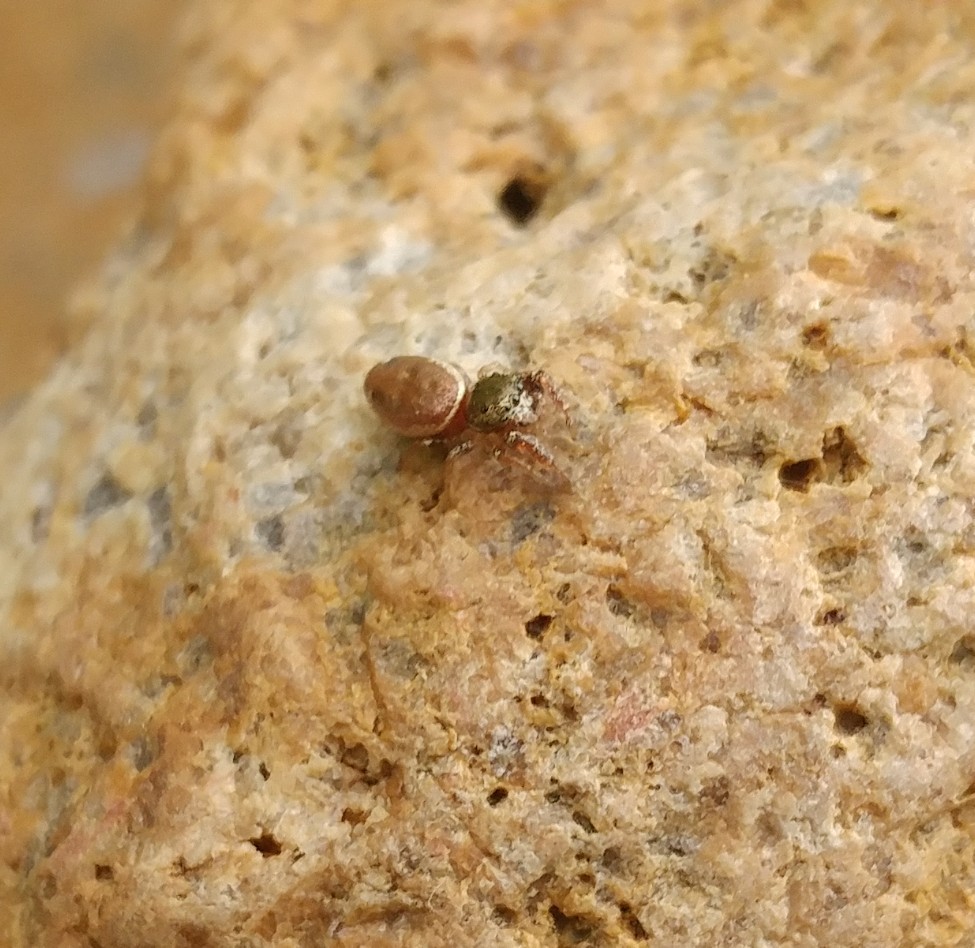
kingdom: Animalia
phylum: Arthropoda
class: Arachnida
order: Araneae
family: Salticidae
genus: Sassacus
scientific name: Sassacus vitis
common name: Jumping spiders
